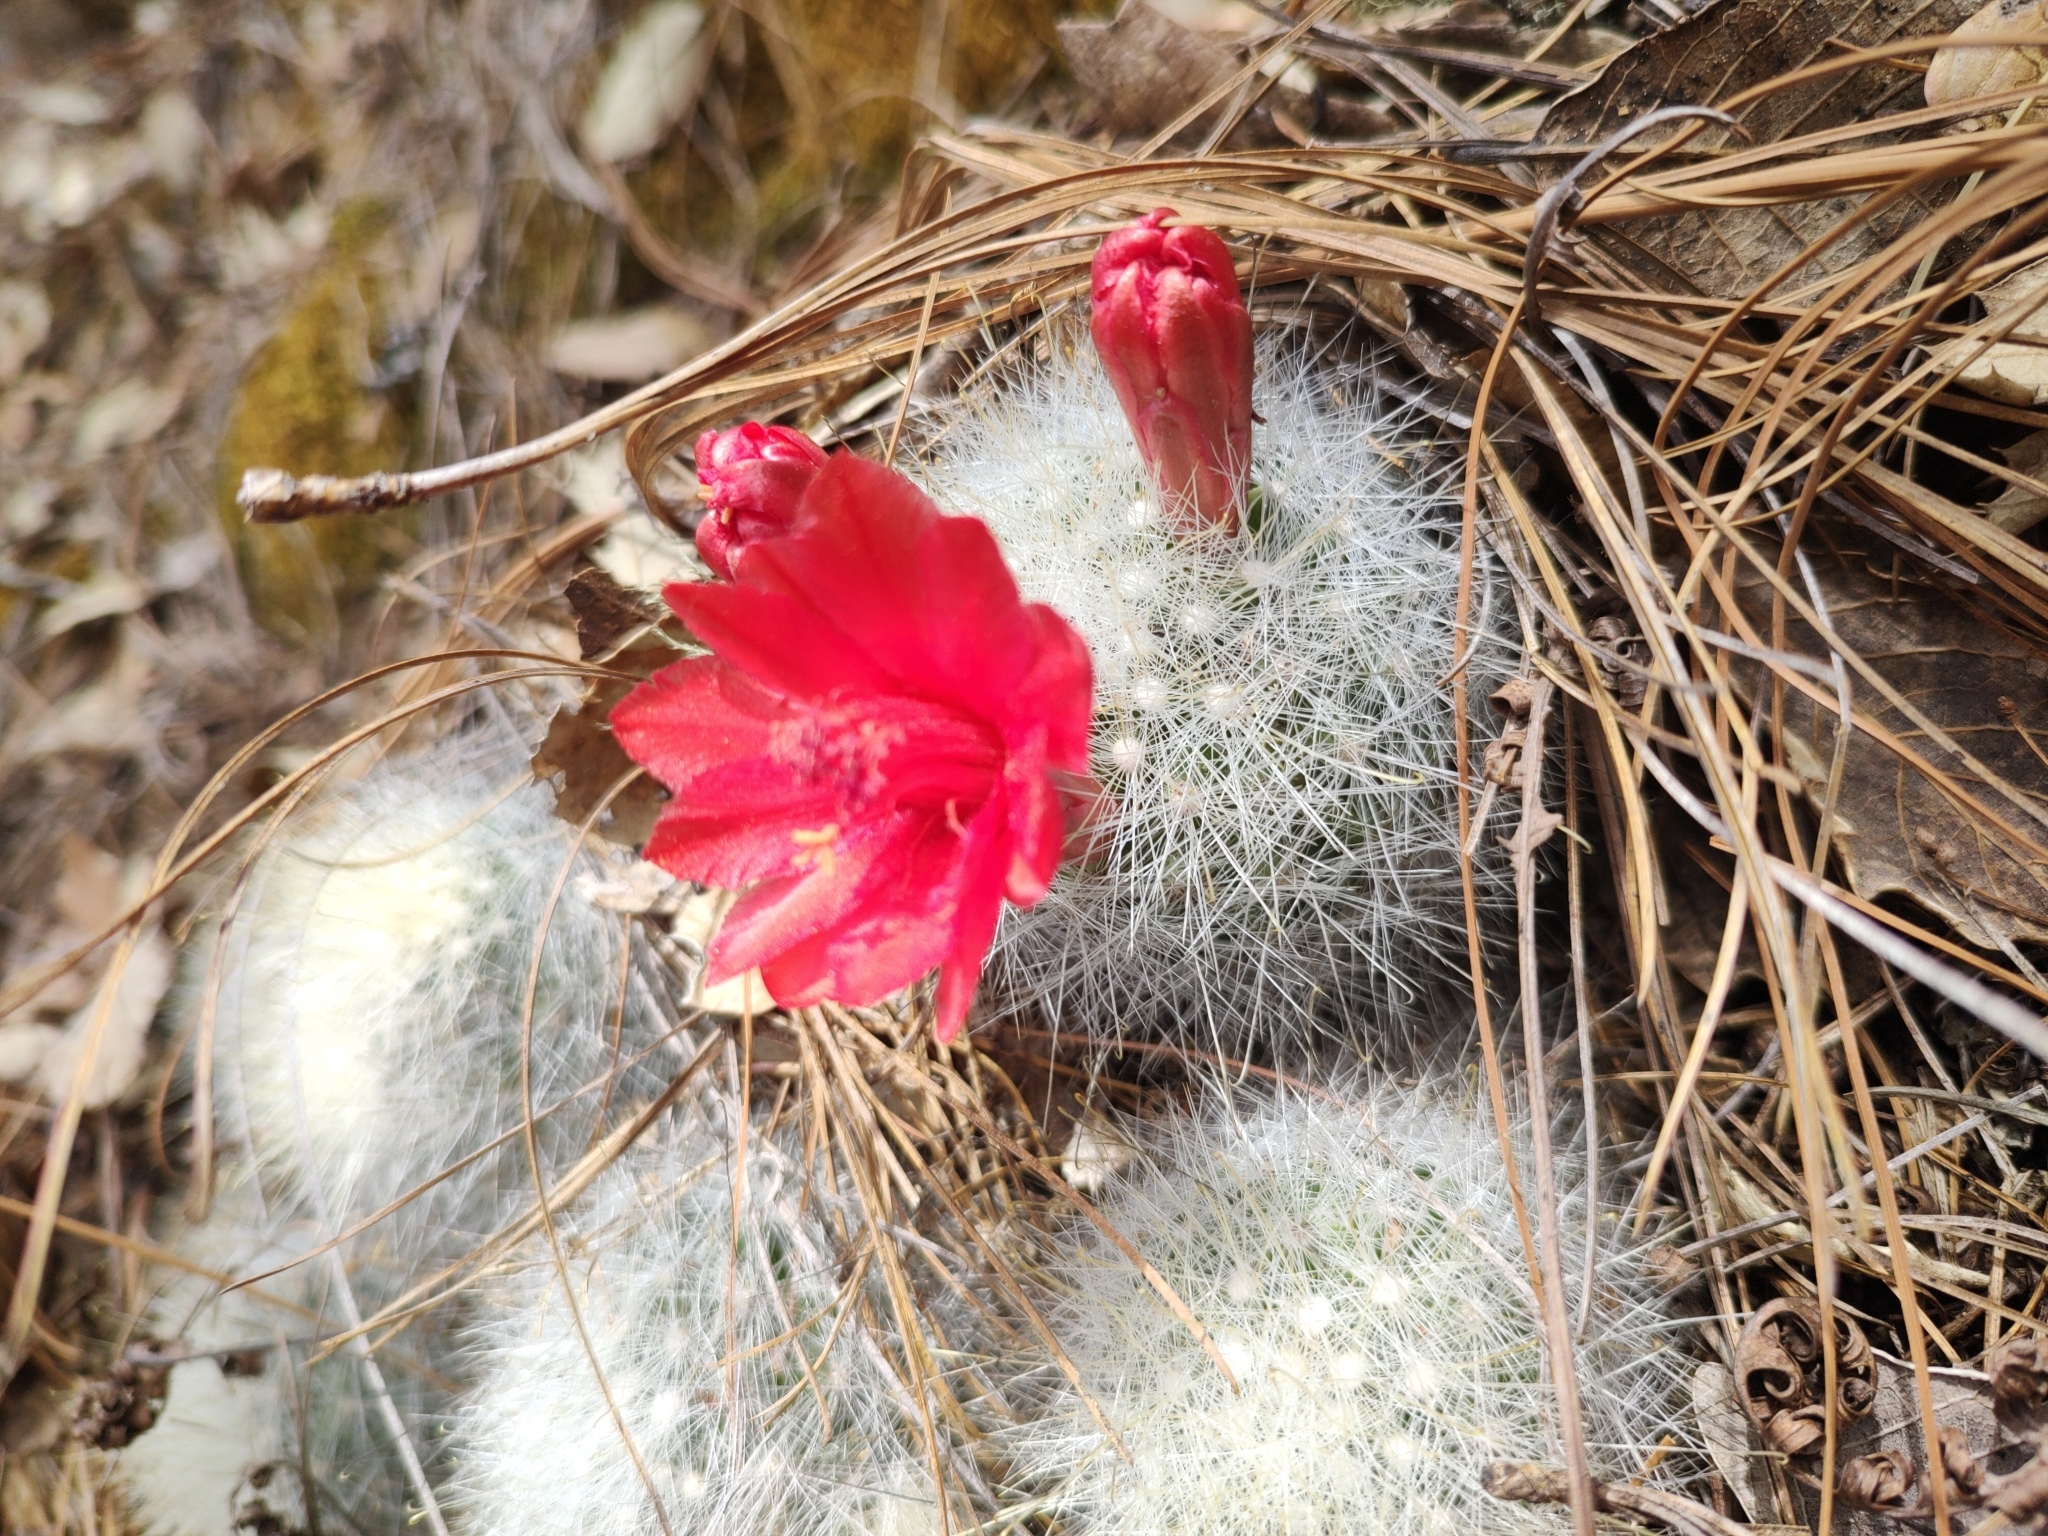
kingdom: Plantae
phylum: Tracheophyta
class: Magnoliopsida
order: Caryophyllales
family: Cactaceae
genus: Mammillaria
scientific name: Mammillaria senilis
